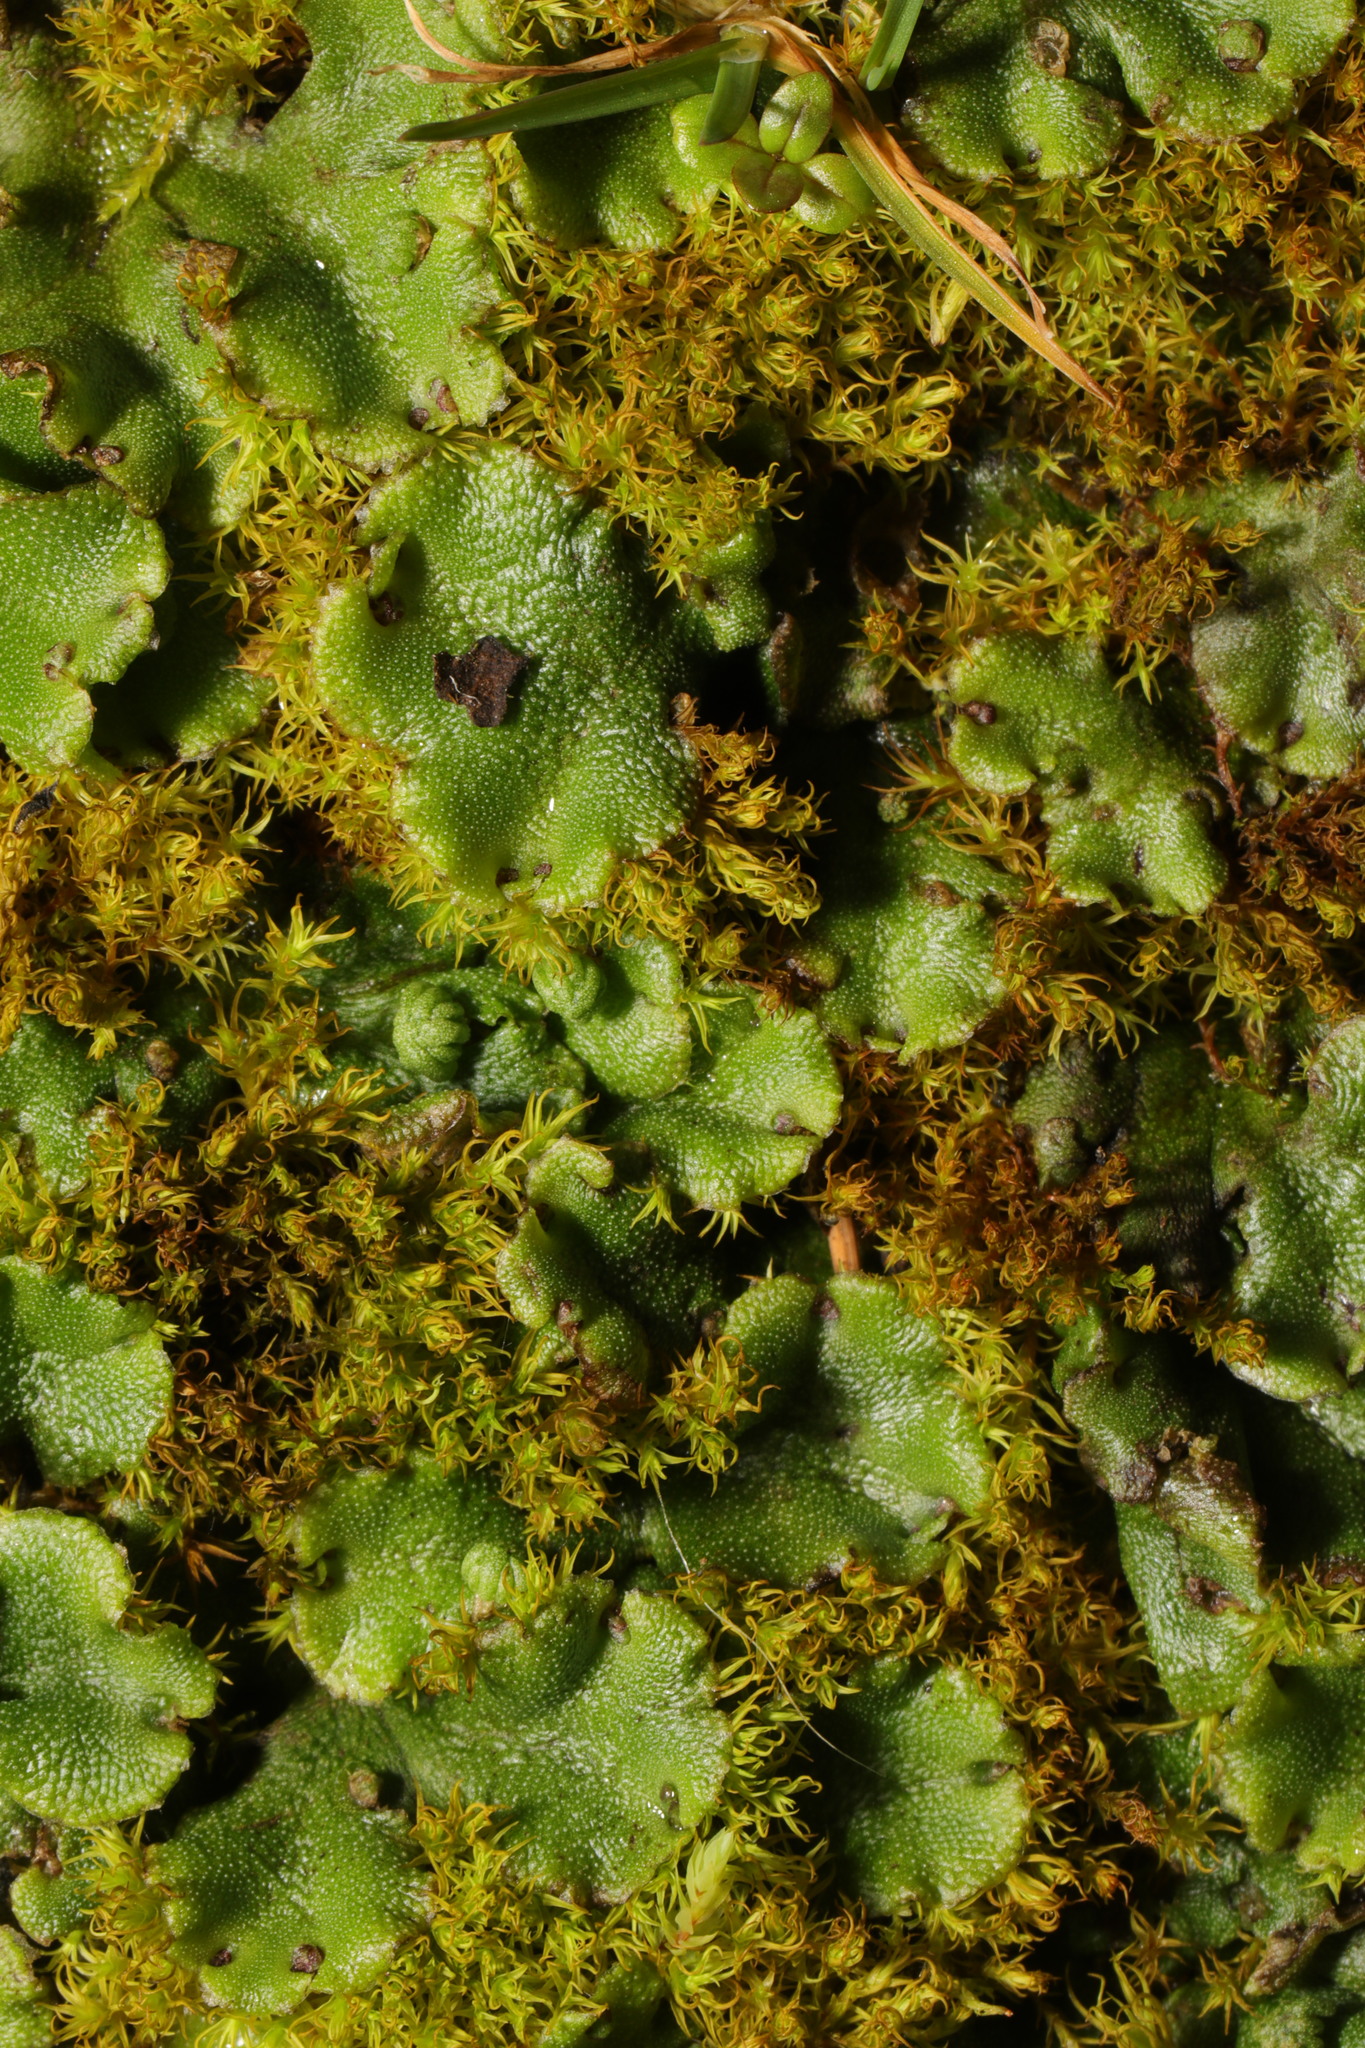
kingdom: Plantae
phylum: Marchantiophyta
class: Marchantiopsida
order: Marchantiales
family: Marchantiaceae
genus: Marchantia
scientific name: Marchantia polymorpha
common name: Common liverwort
